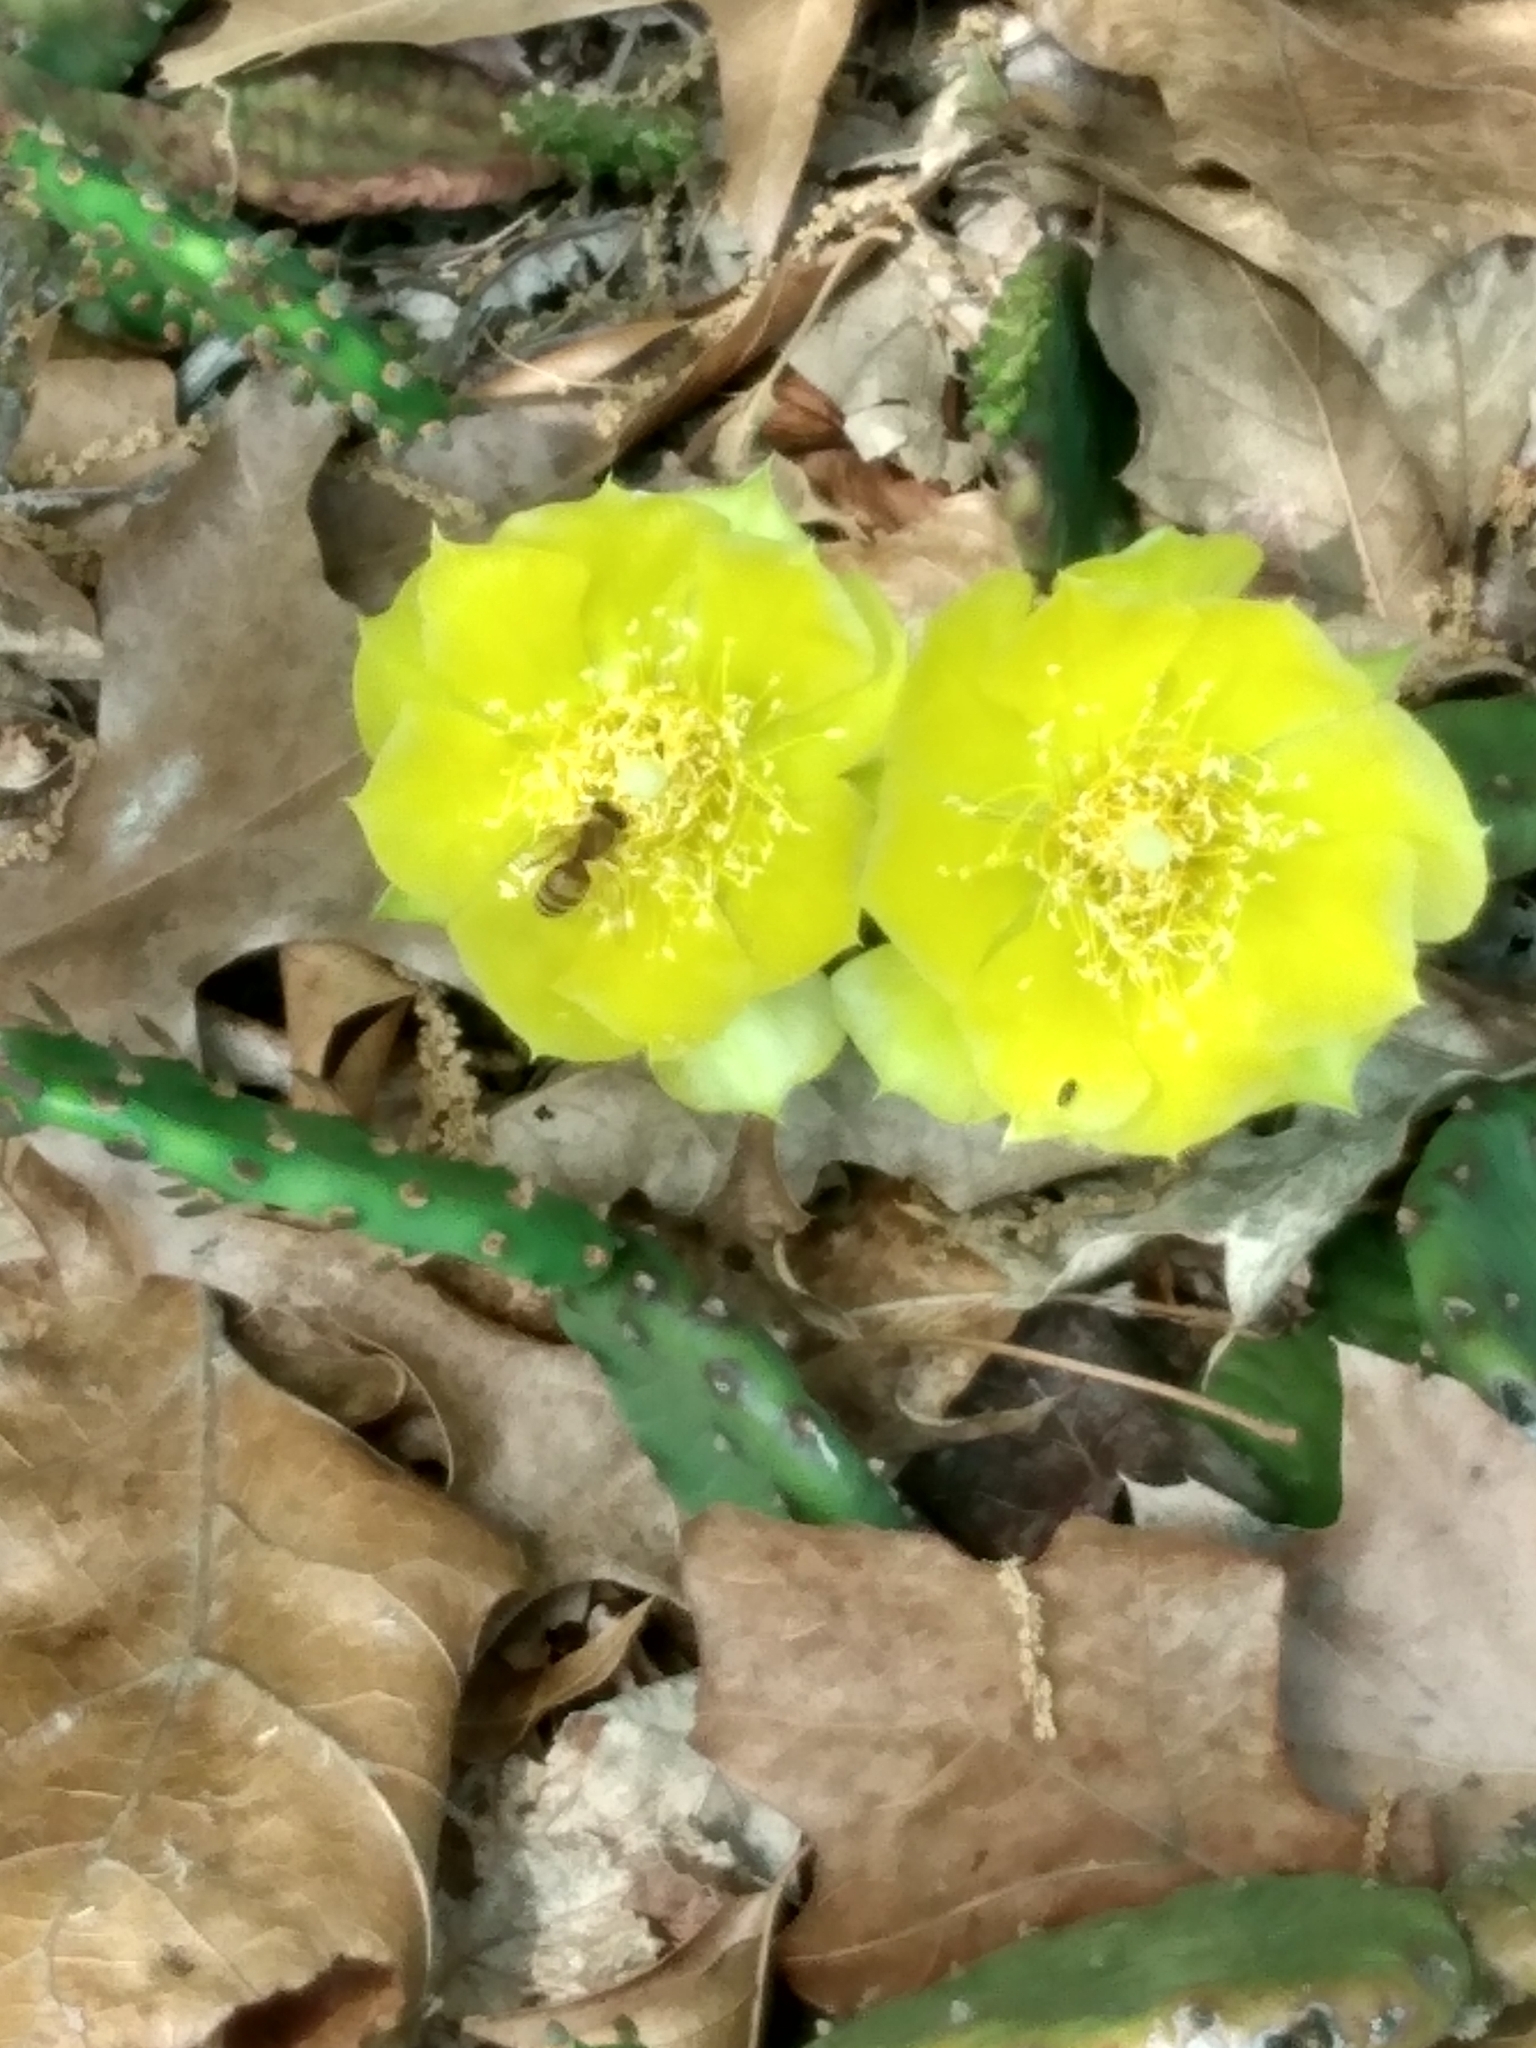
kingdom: Plantae
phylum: Tracheophyta
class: Magnoliopsida
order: Caryophyllales
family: Cactaceae
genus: Opuntia
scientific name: Opuntia humifusa
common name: Eastern prickly-pear
